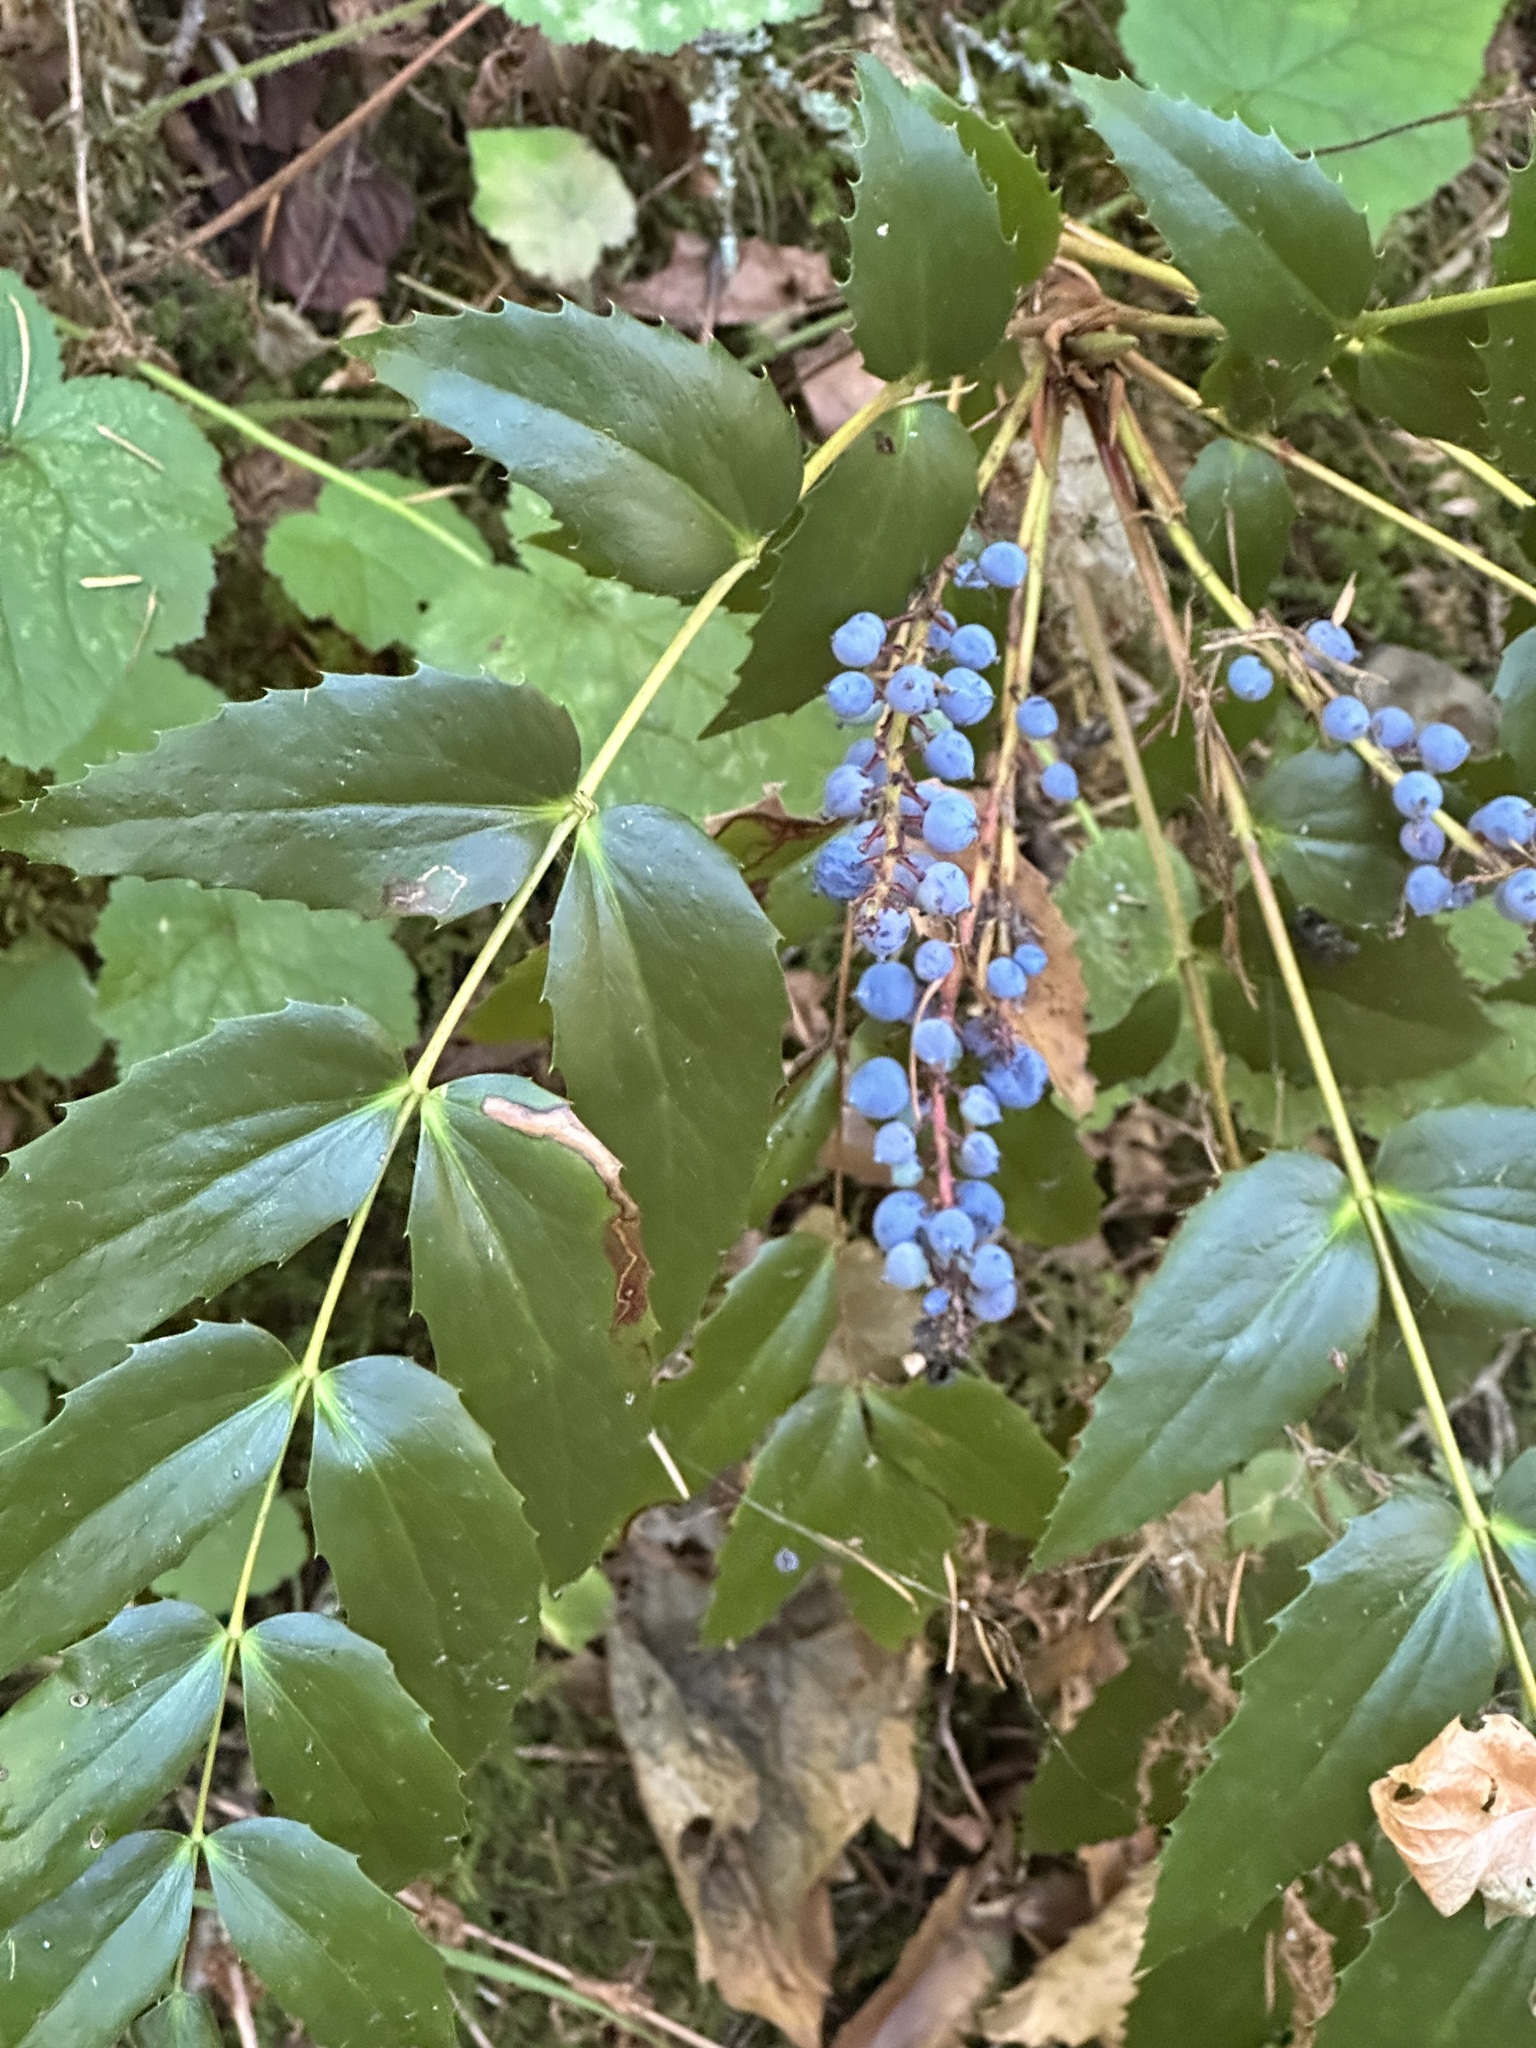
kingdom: Plantae
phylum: Tracheophyta
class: Magnoliopsida
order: Ranunculales
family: Berberidaceae
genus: Mahonia
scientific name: Mahonia nervosa
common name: Cascade oregon-grape
